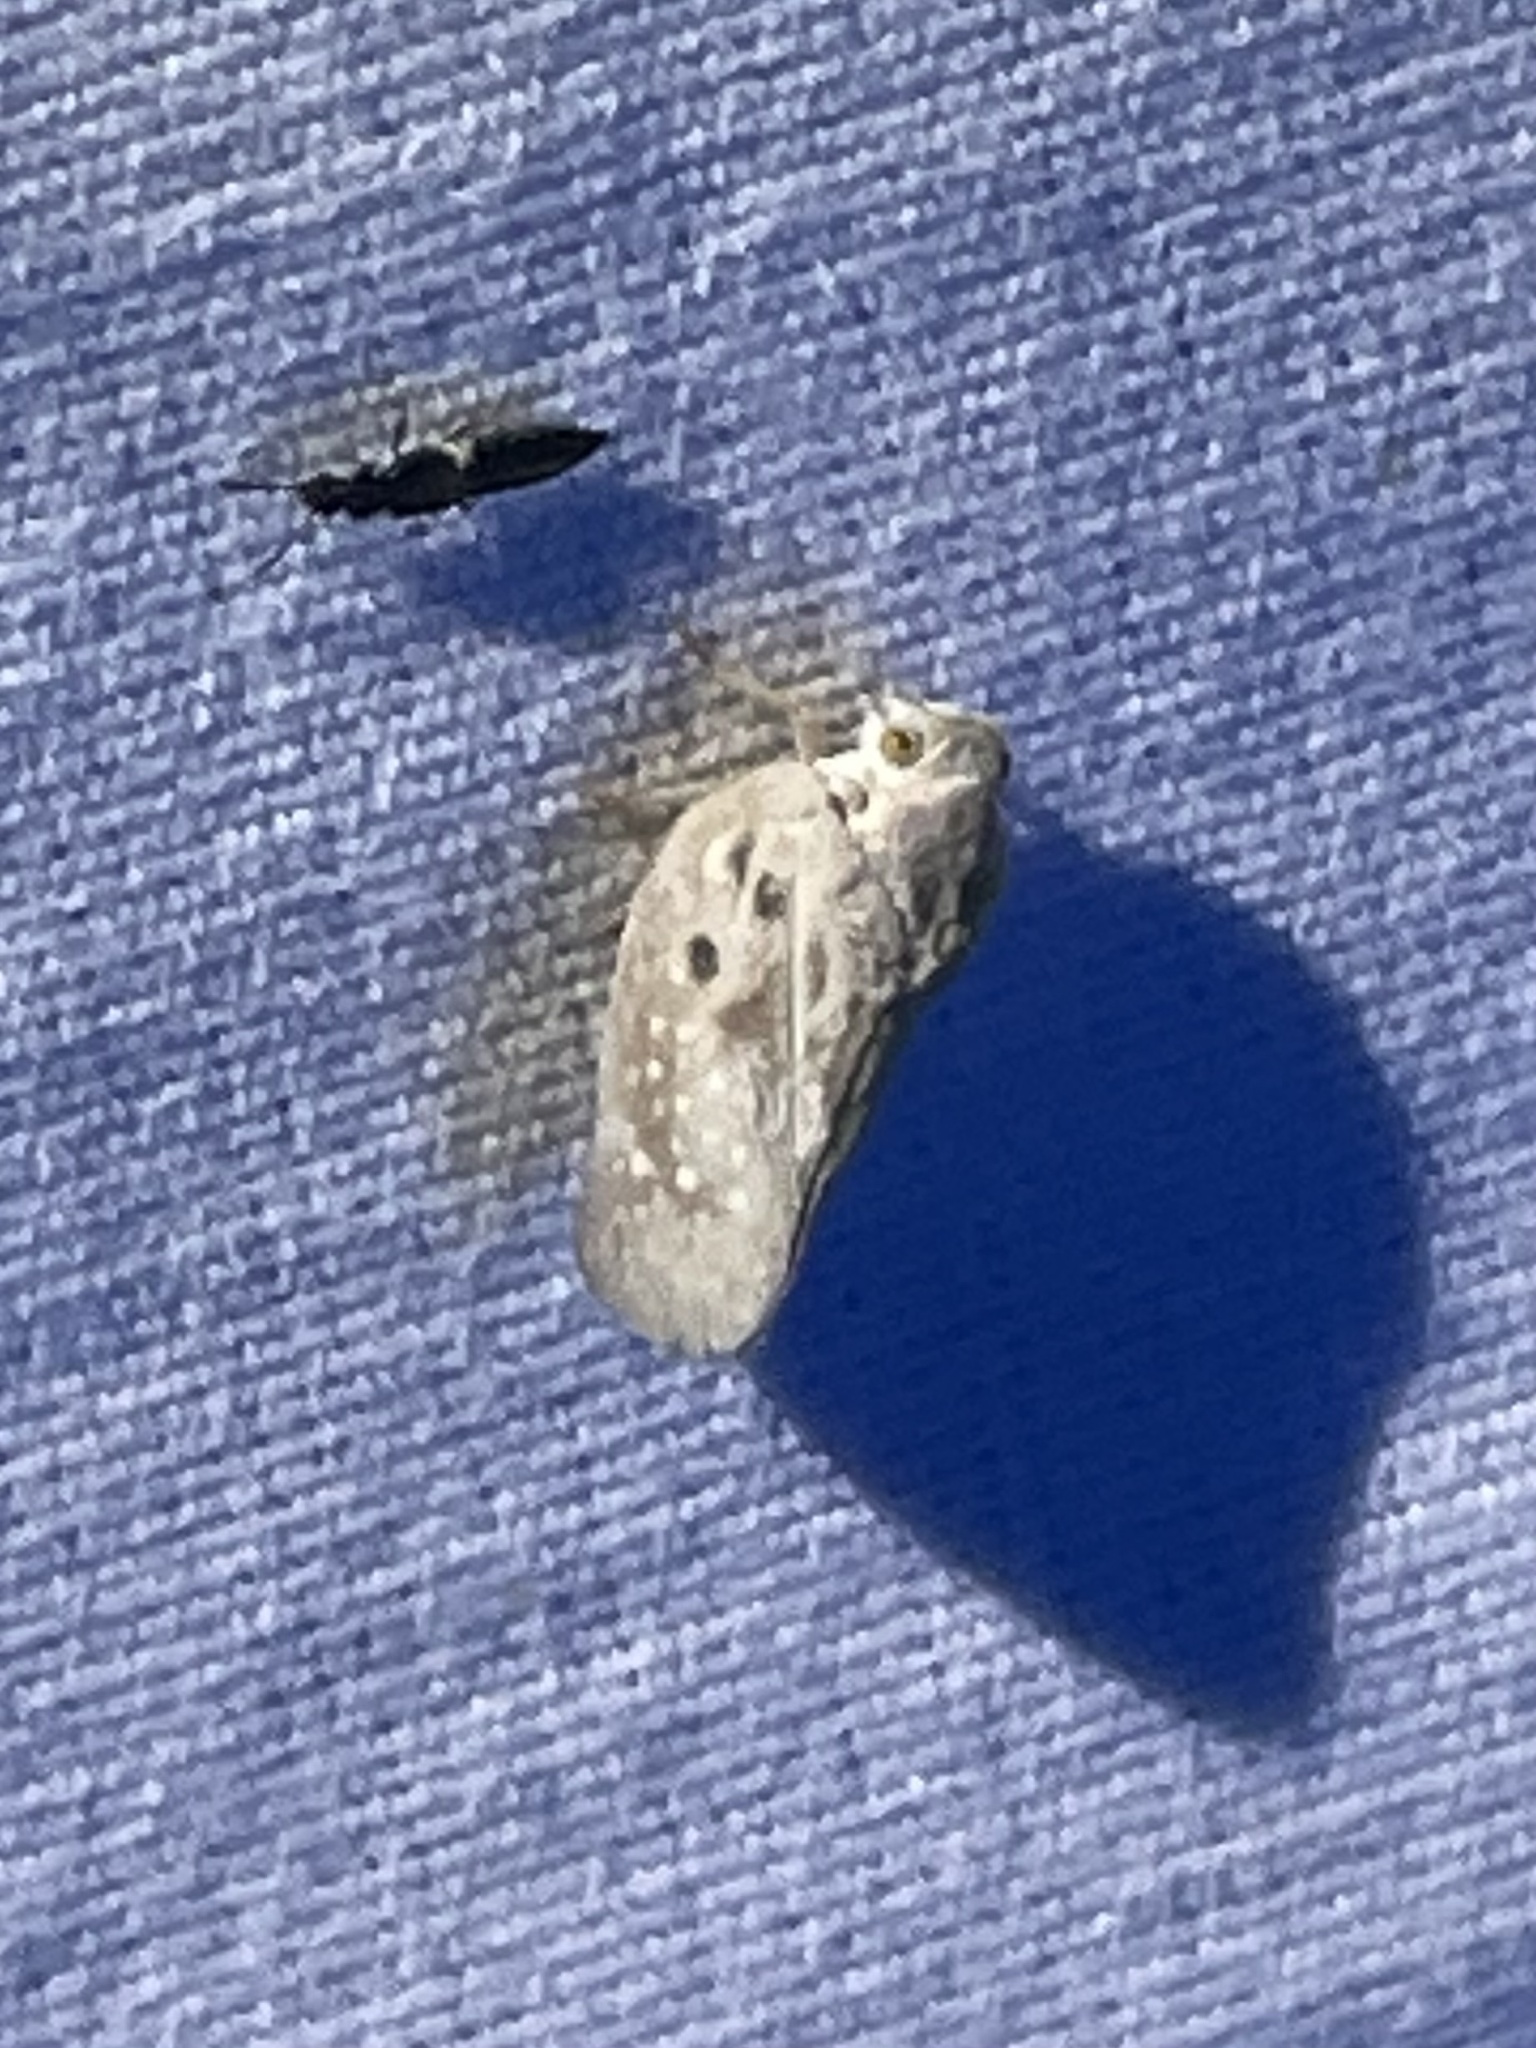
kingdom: Animalia
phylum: Arthropoda
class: Insecta
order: Hemiptera
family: Flatidae
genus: Metcalfa
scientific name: Metcalfa pruinosa
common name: Citrus flatid planthopper
